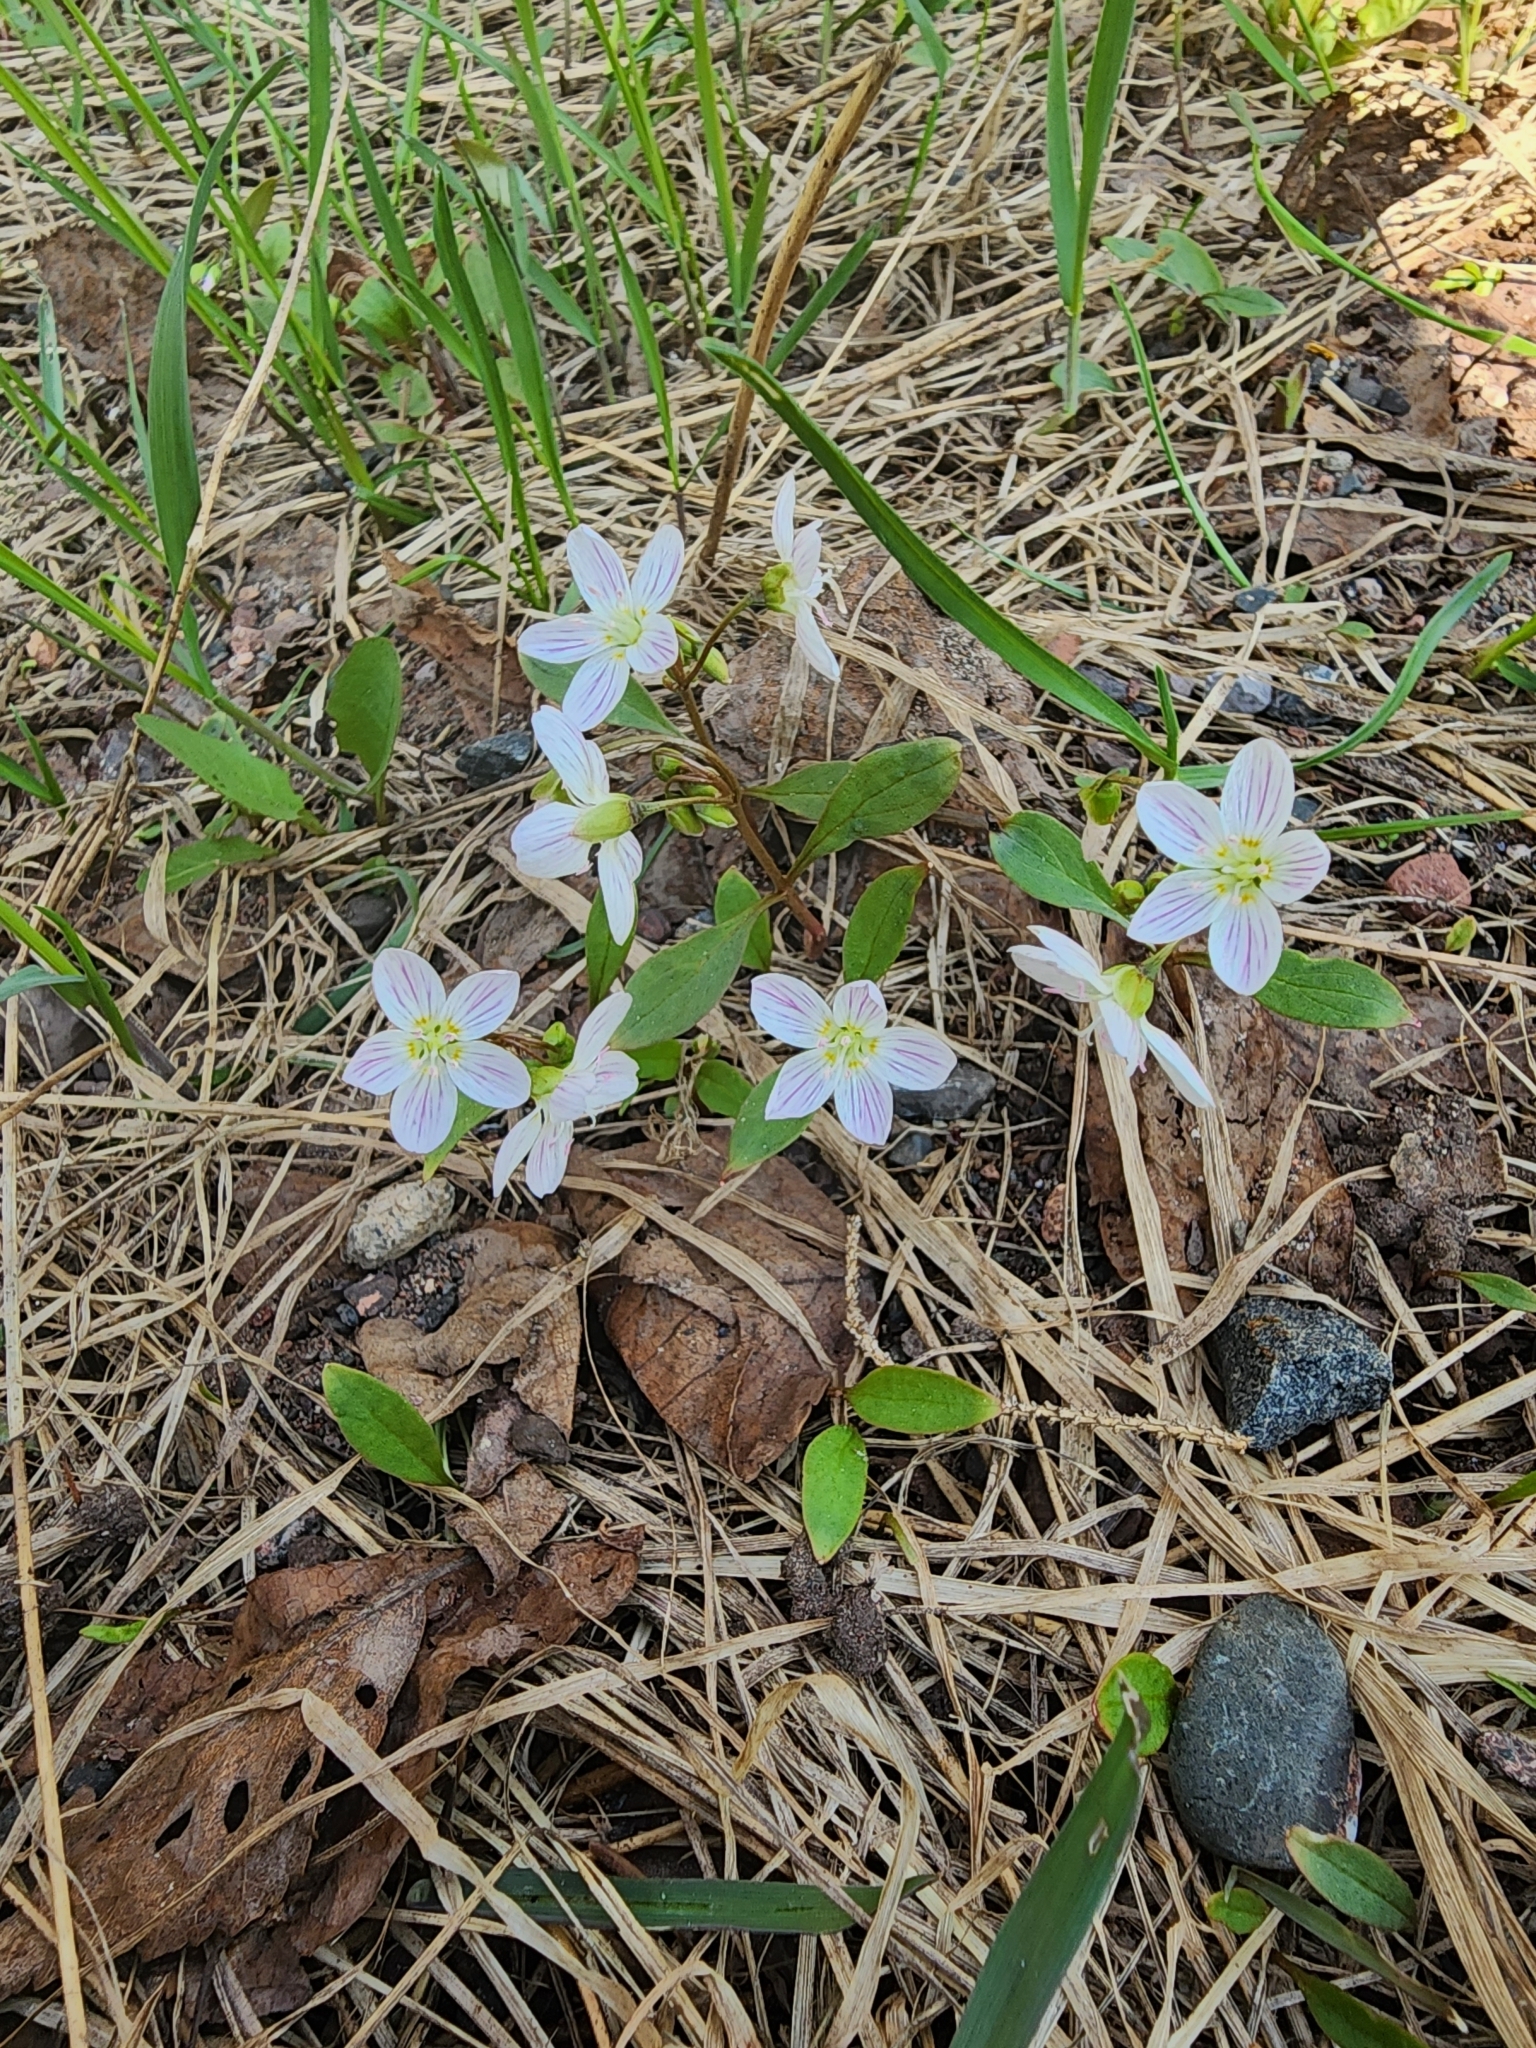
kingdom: Plantae
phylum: Tracheophyta
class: Magnoliopsida
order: Caryophyllales
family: Montiaceae
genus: Claytonia
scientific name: Claytonia caroliniana
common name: Carolina spring beauty
